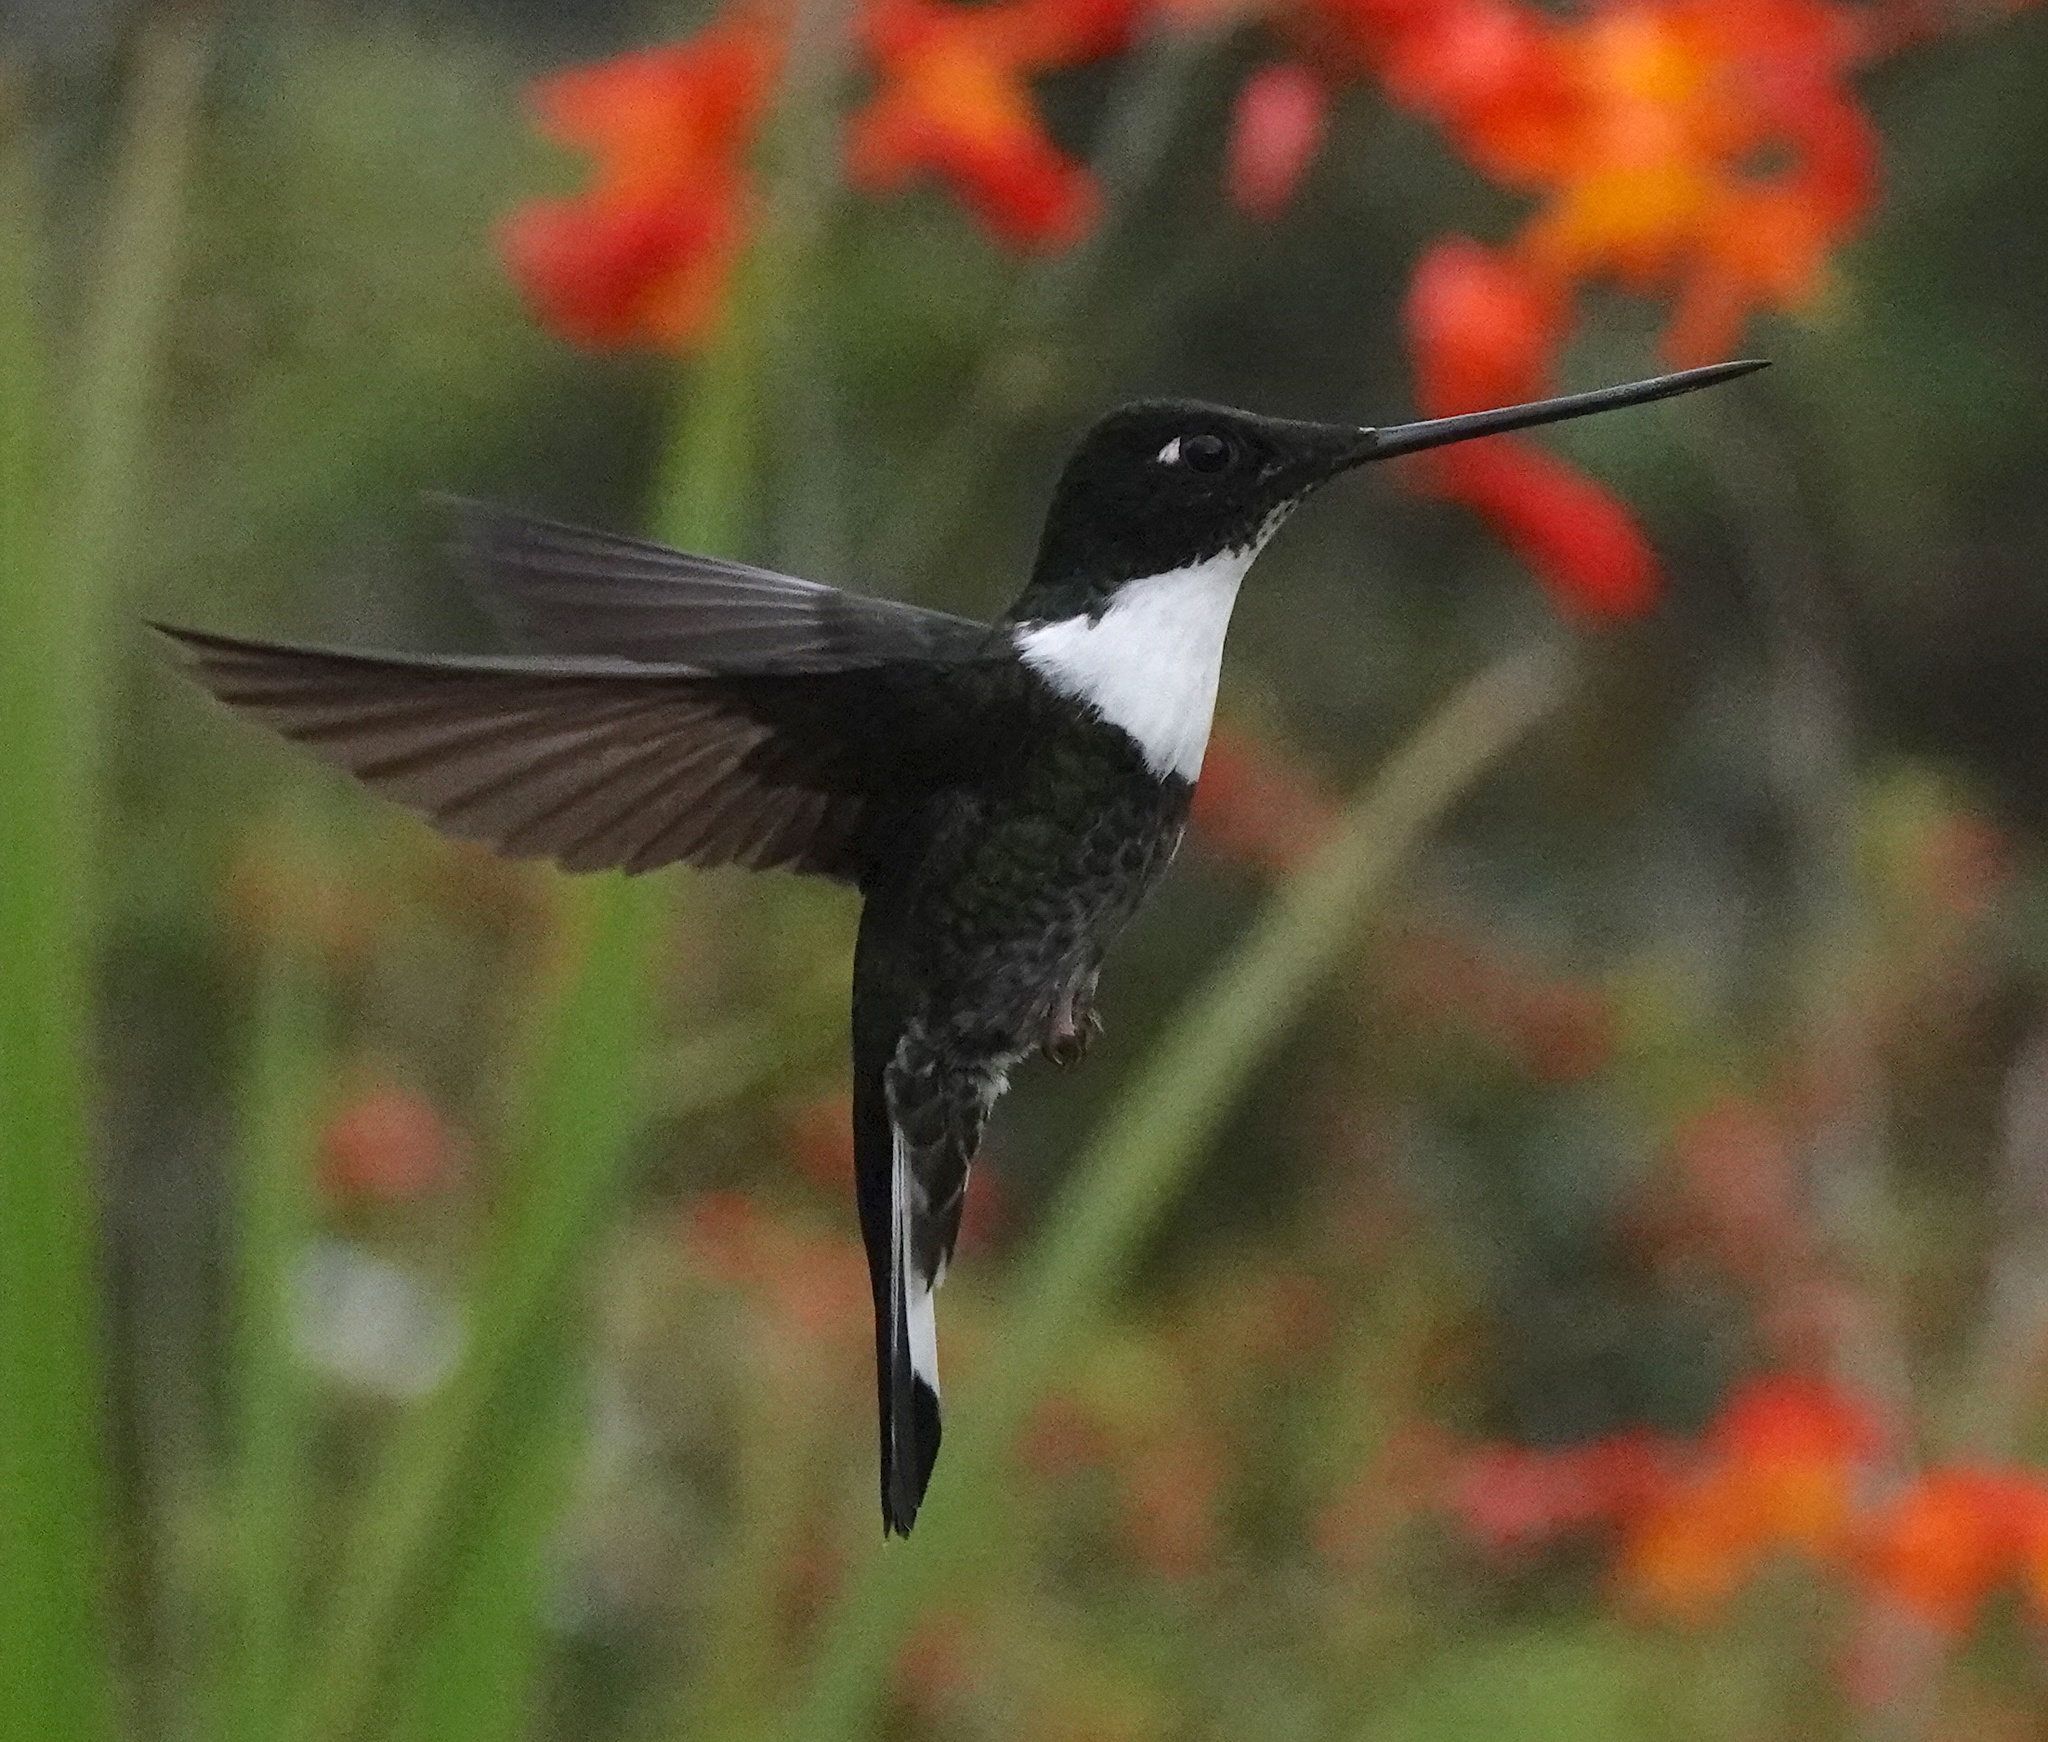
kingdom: Animalia
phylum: Chordata
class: Aves
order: Apodiformes
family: Trochilidae
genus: Coeligena
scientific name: Coeligena torquata
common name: Collared inca
